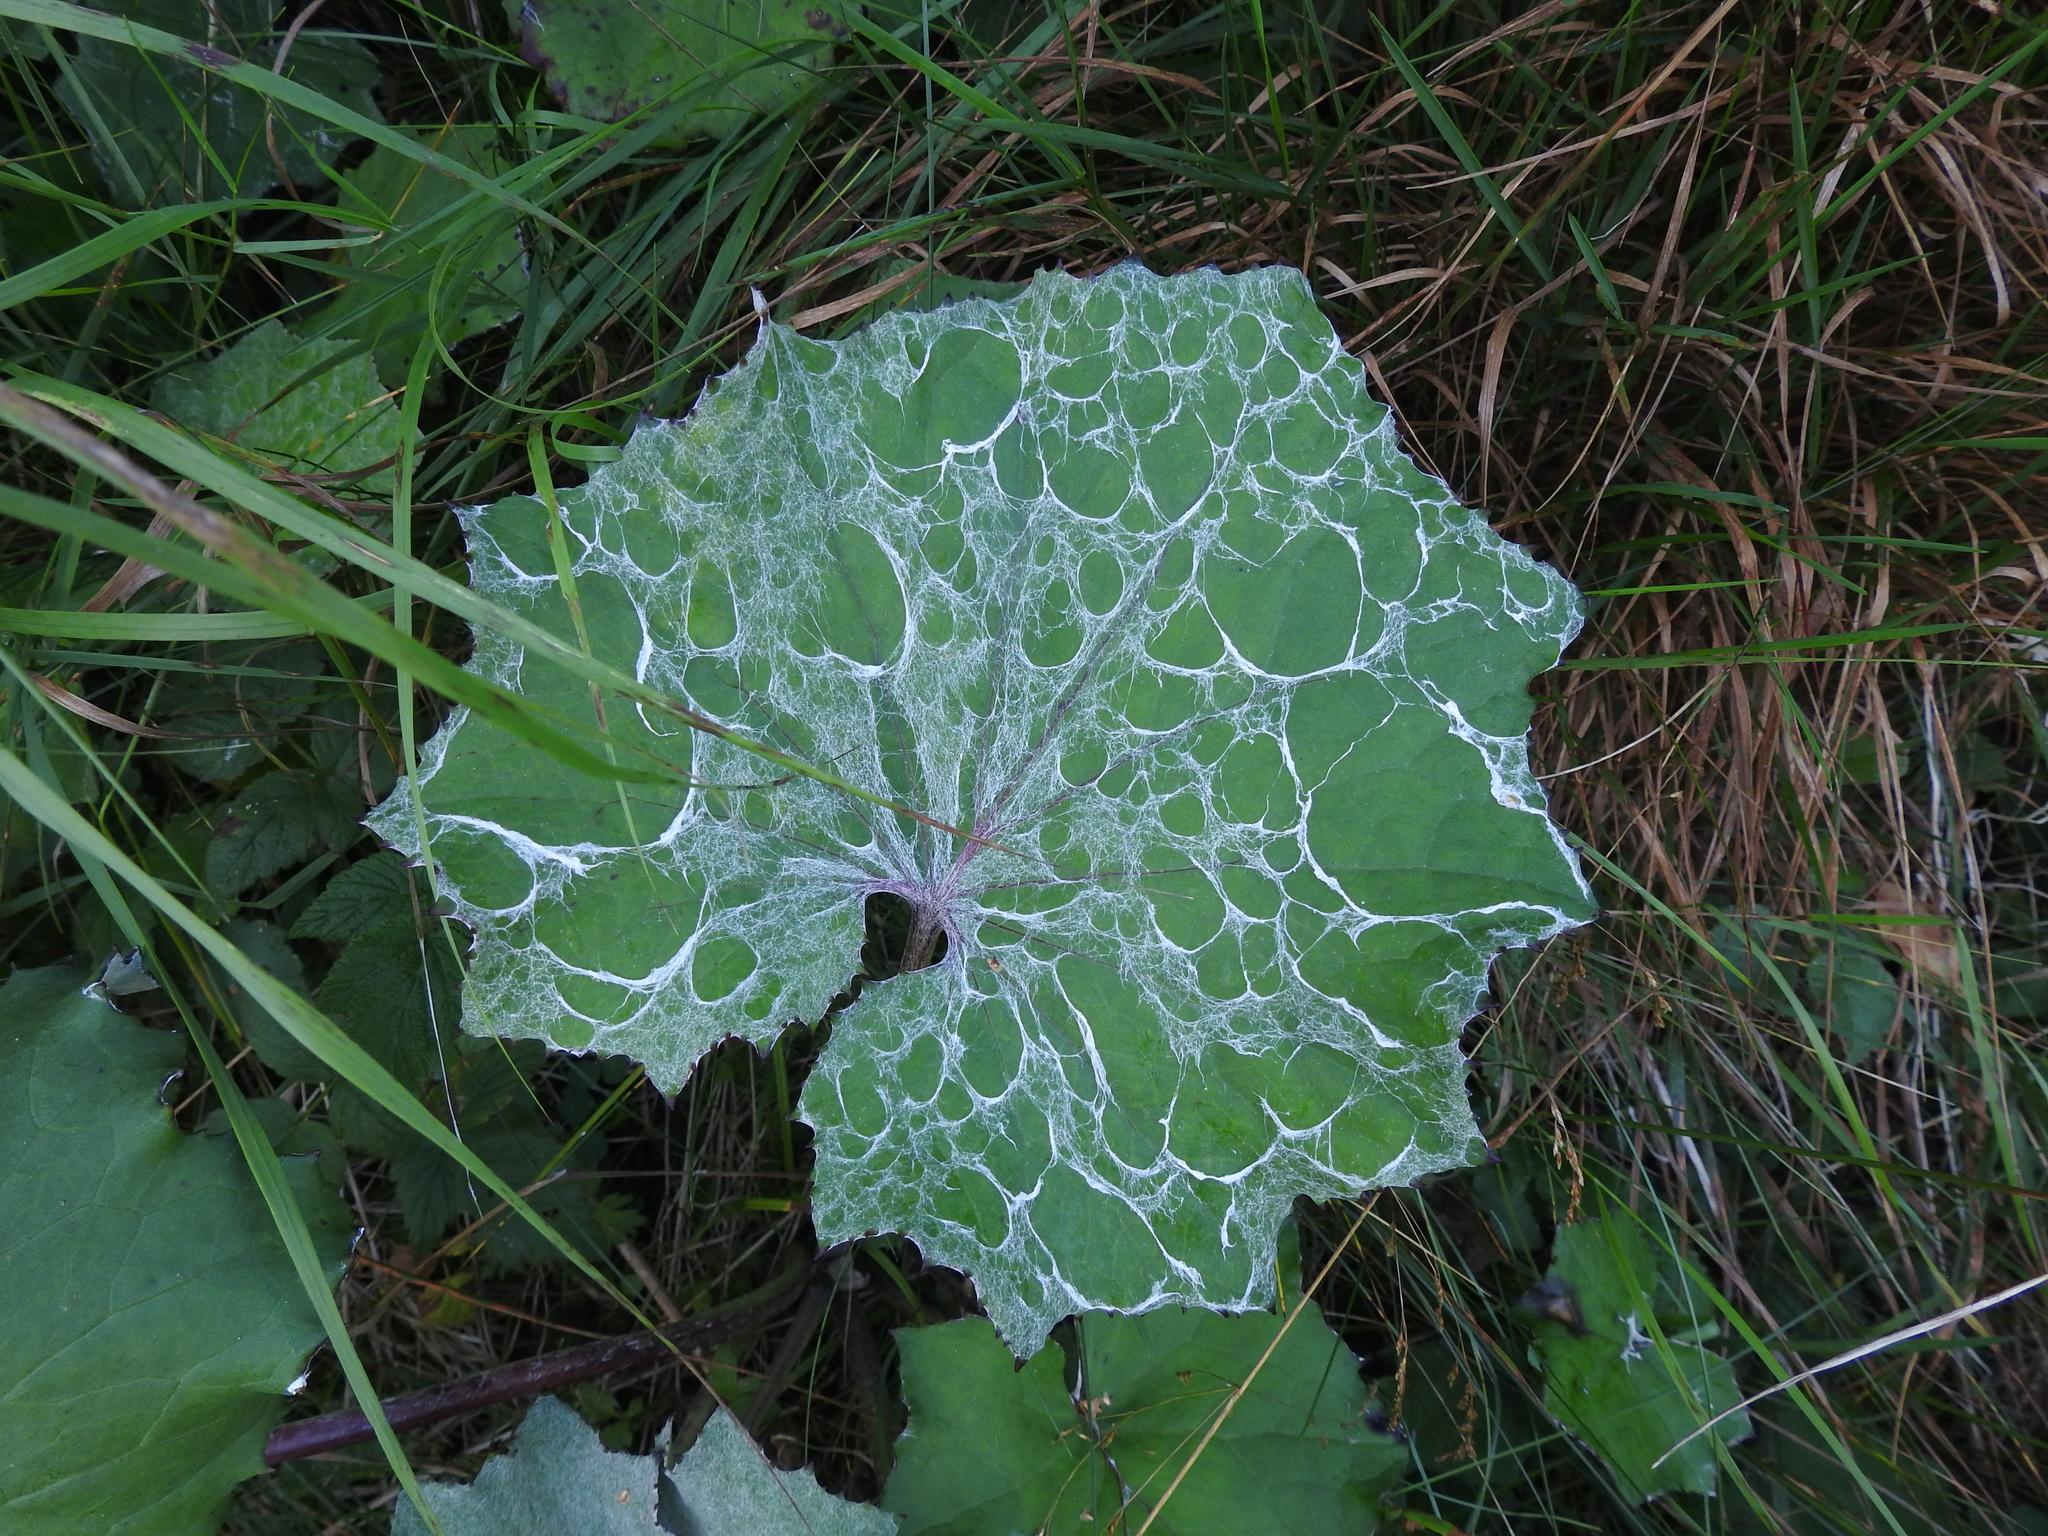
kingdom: Plantae
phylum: Tracheophyta
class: Magnoliopsida
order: Asterales
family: Asteraceae
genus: Tussilago
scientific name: Tussilago farfara
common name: Coltsfoot
